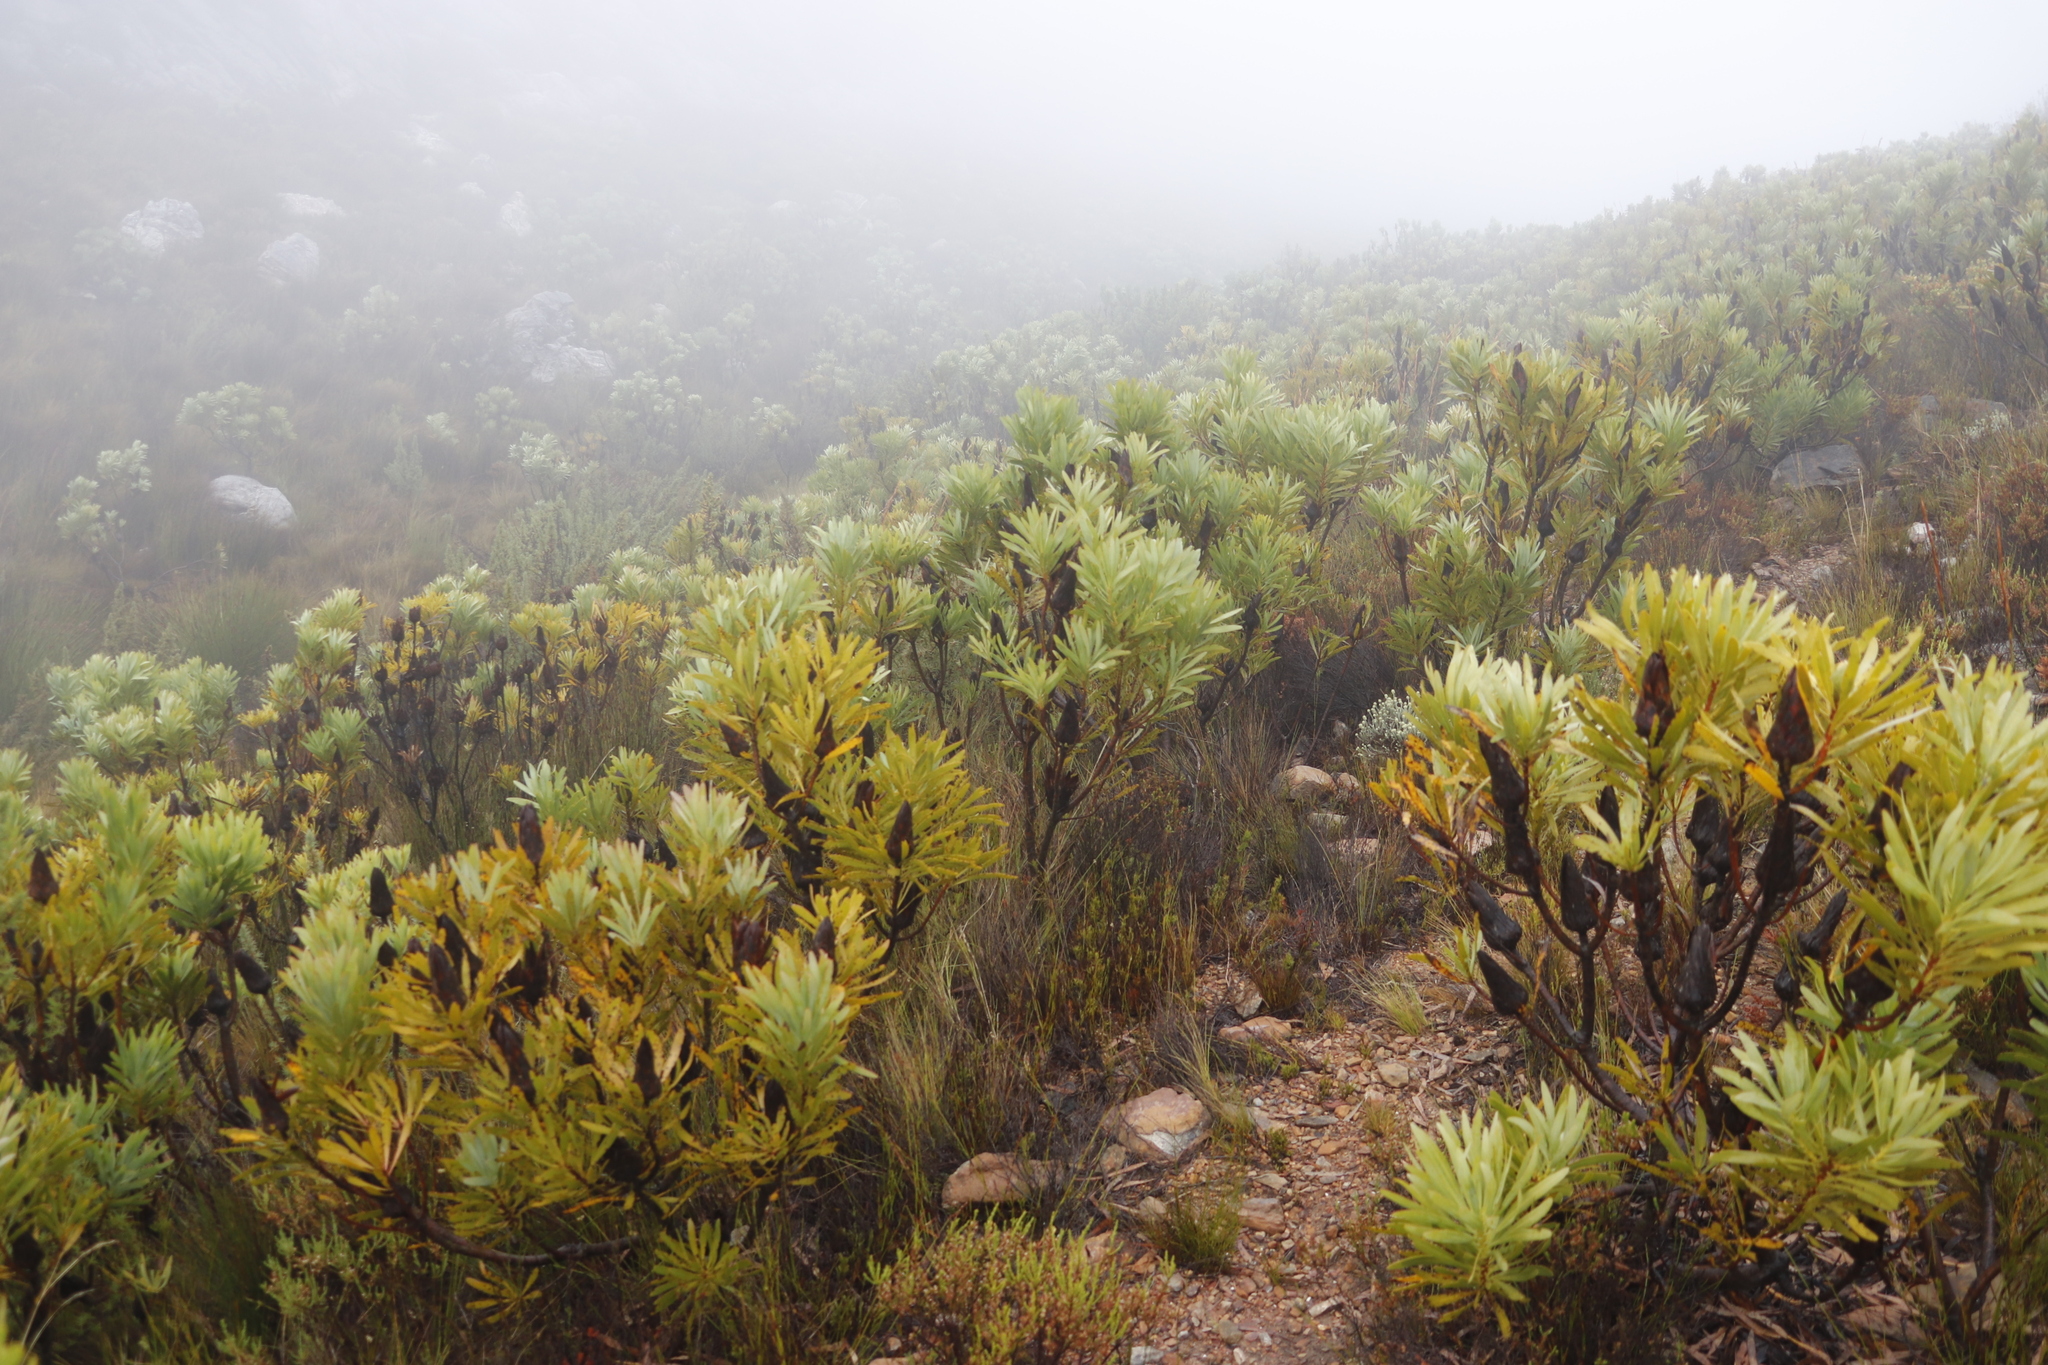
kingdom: Plantae
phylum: Tracheophyta
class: Magnoliopsida
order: Proteales
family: Proteaceae
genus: Protea
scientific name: Protea repens
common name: Sugarbush
